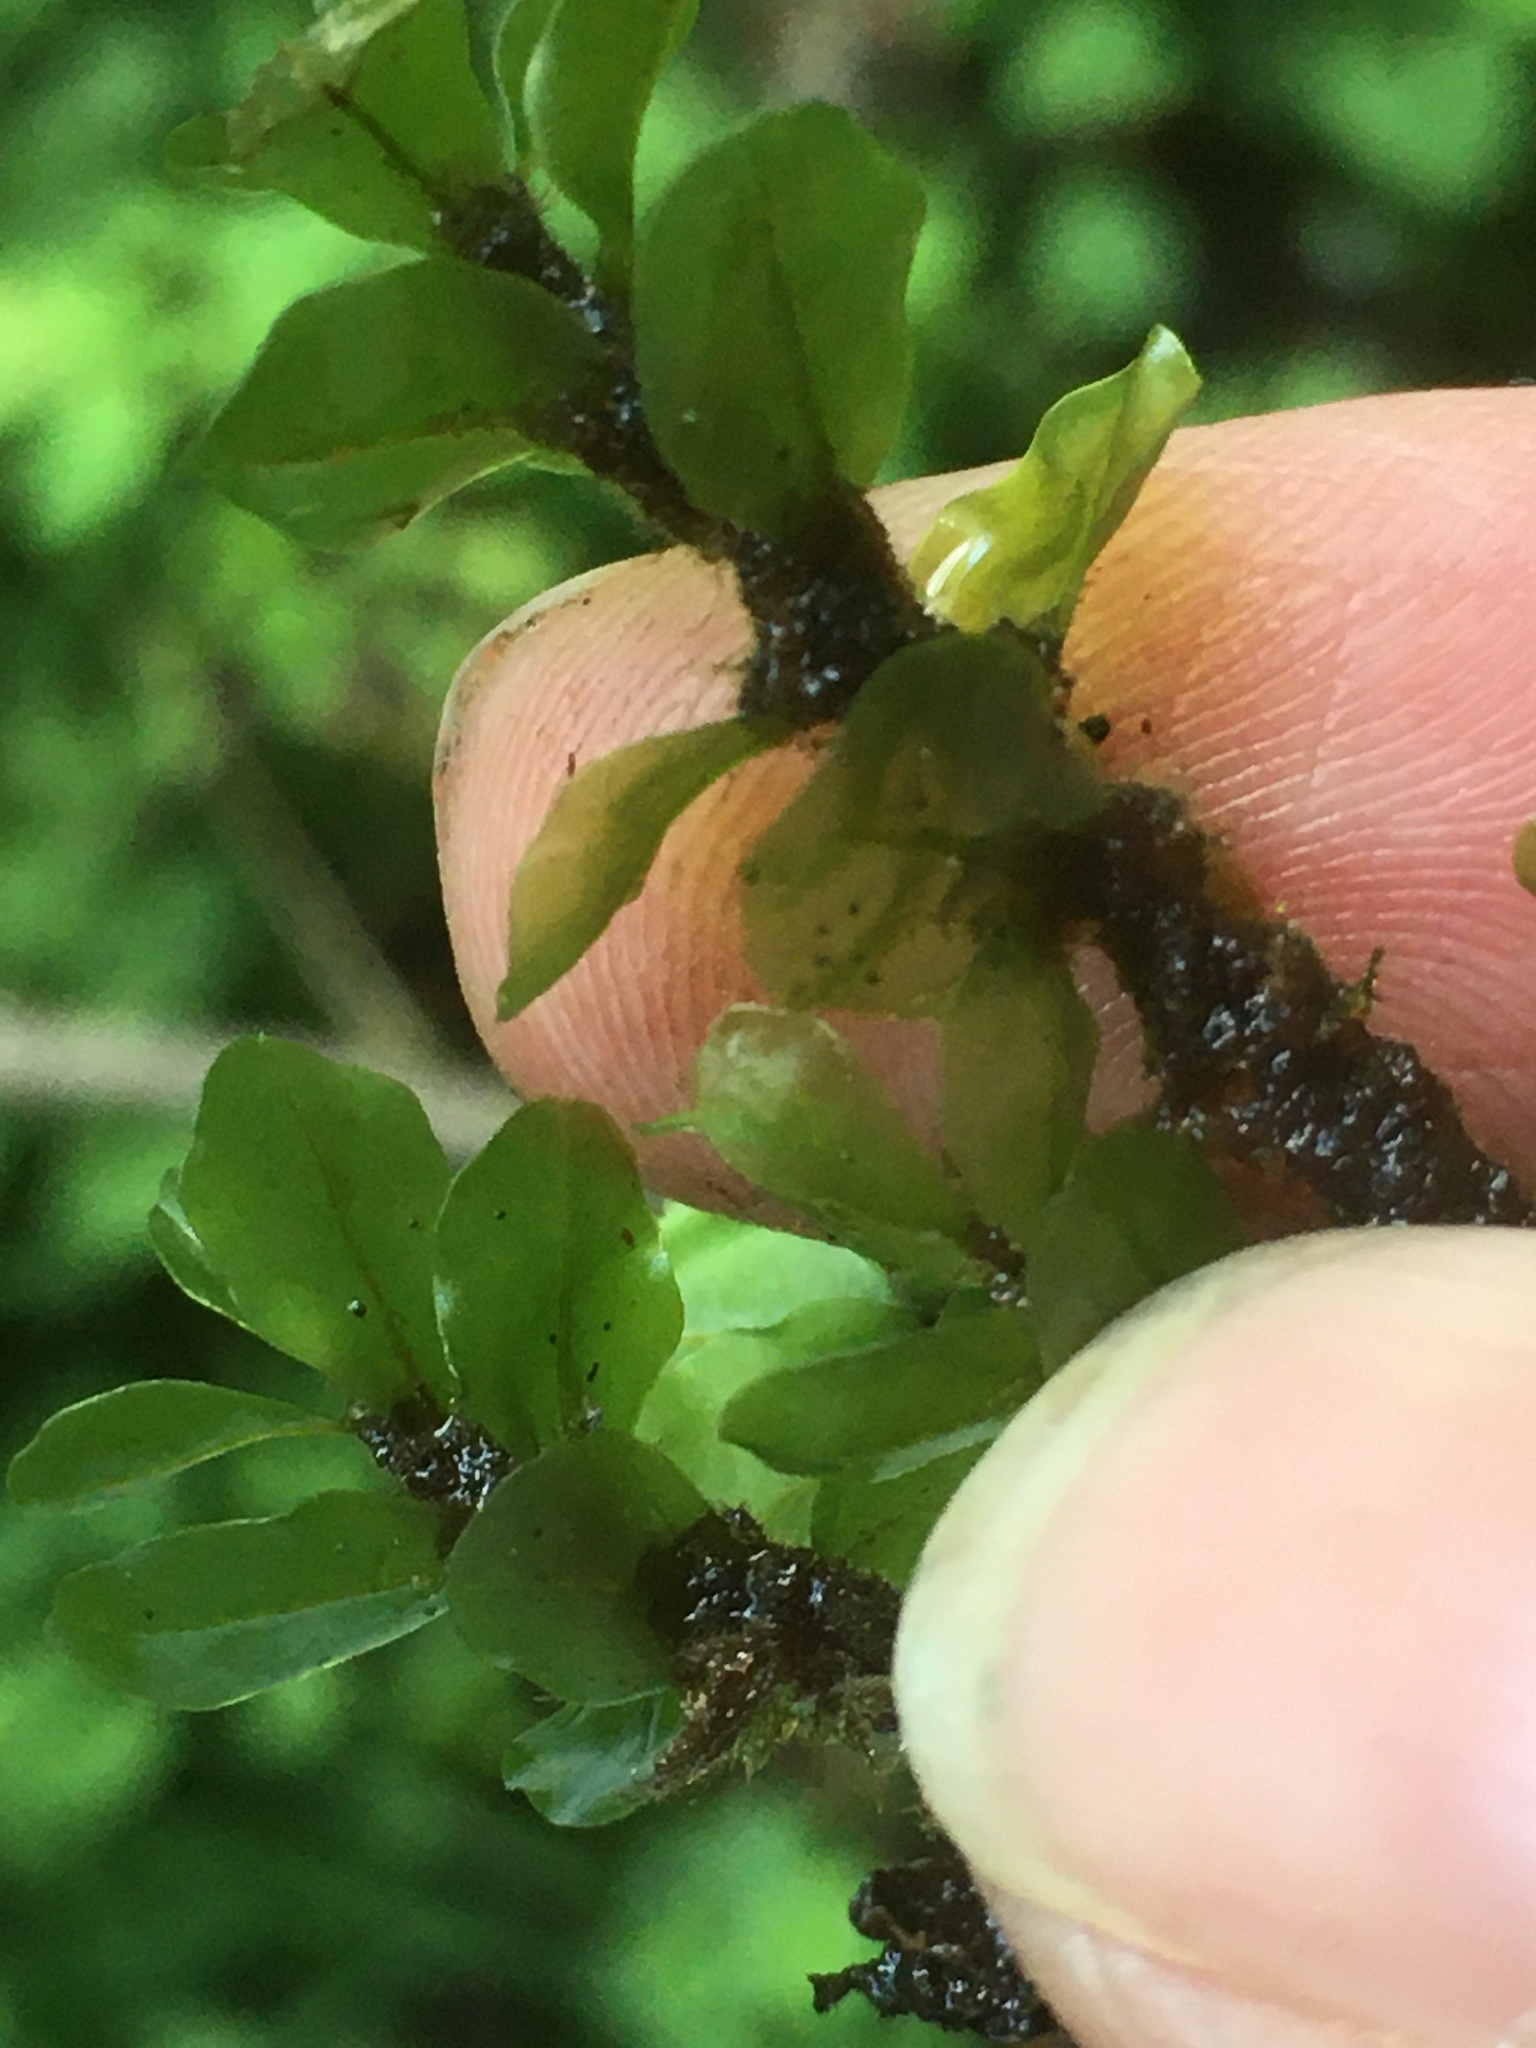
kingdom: Plantae
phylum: Bryophyta
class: Bryopsida
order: Bryales
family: Mniaceae
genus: Rhizomnium
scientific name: Rhizomnium appalachianum
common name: Appalachian leafy moss
